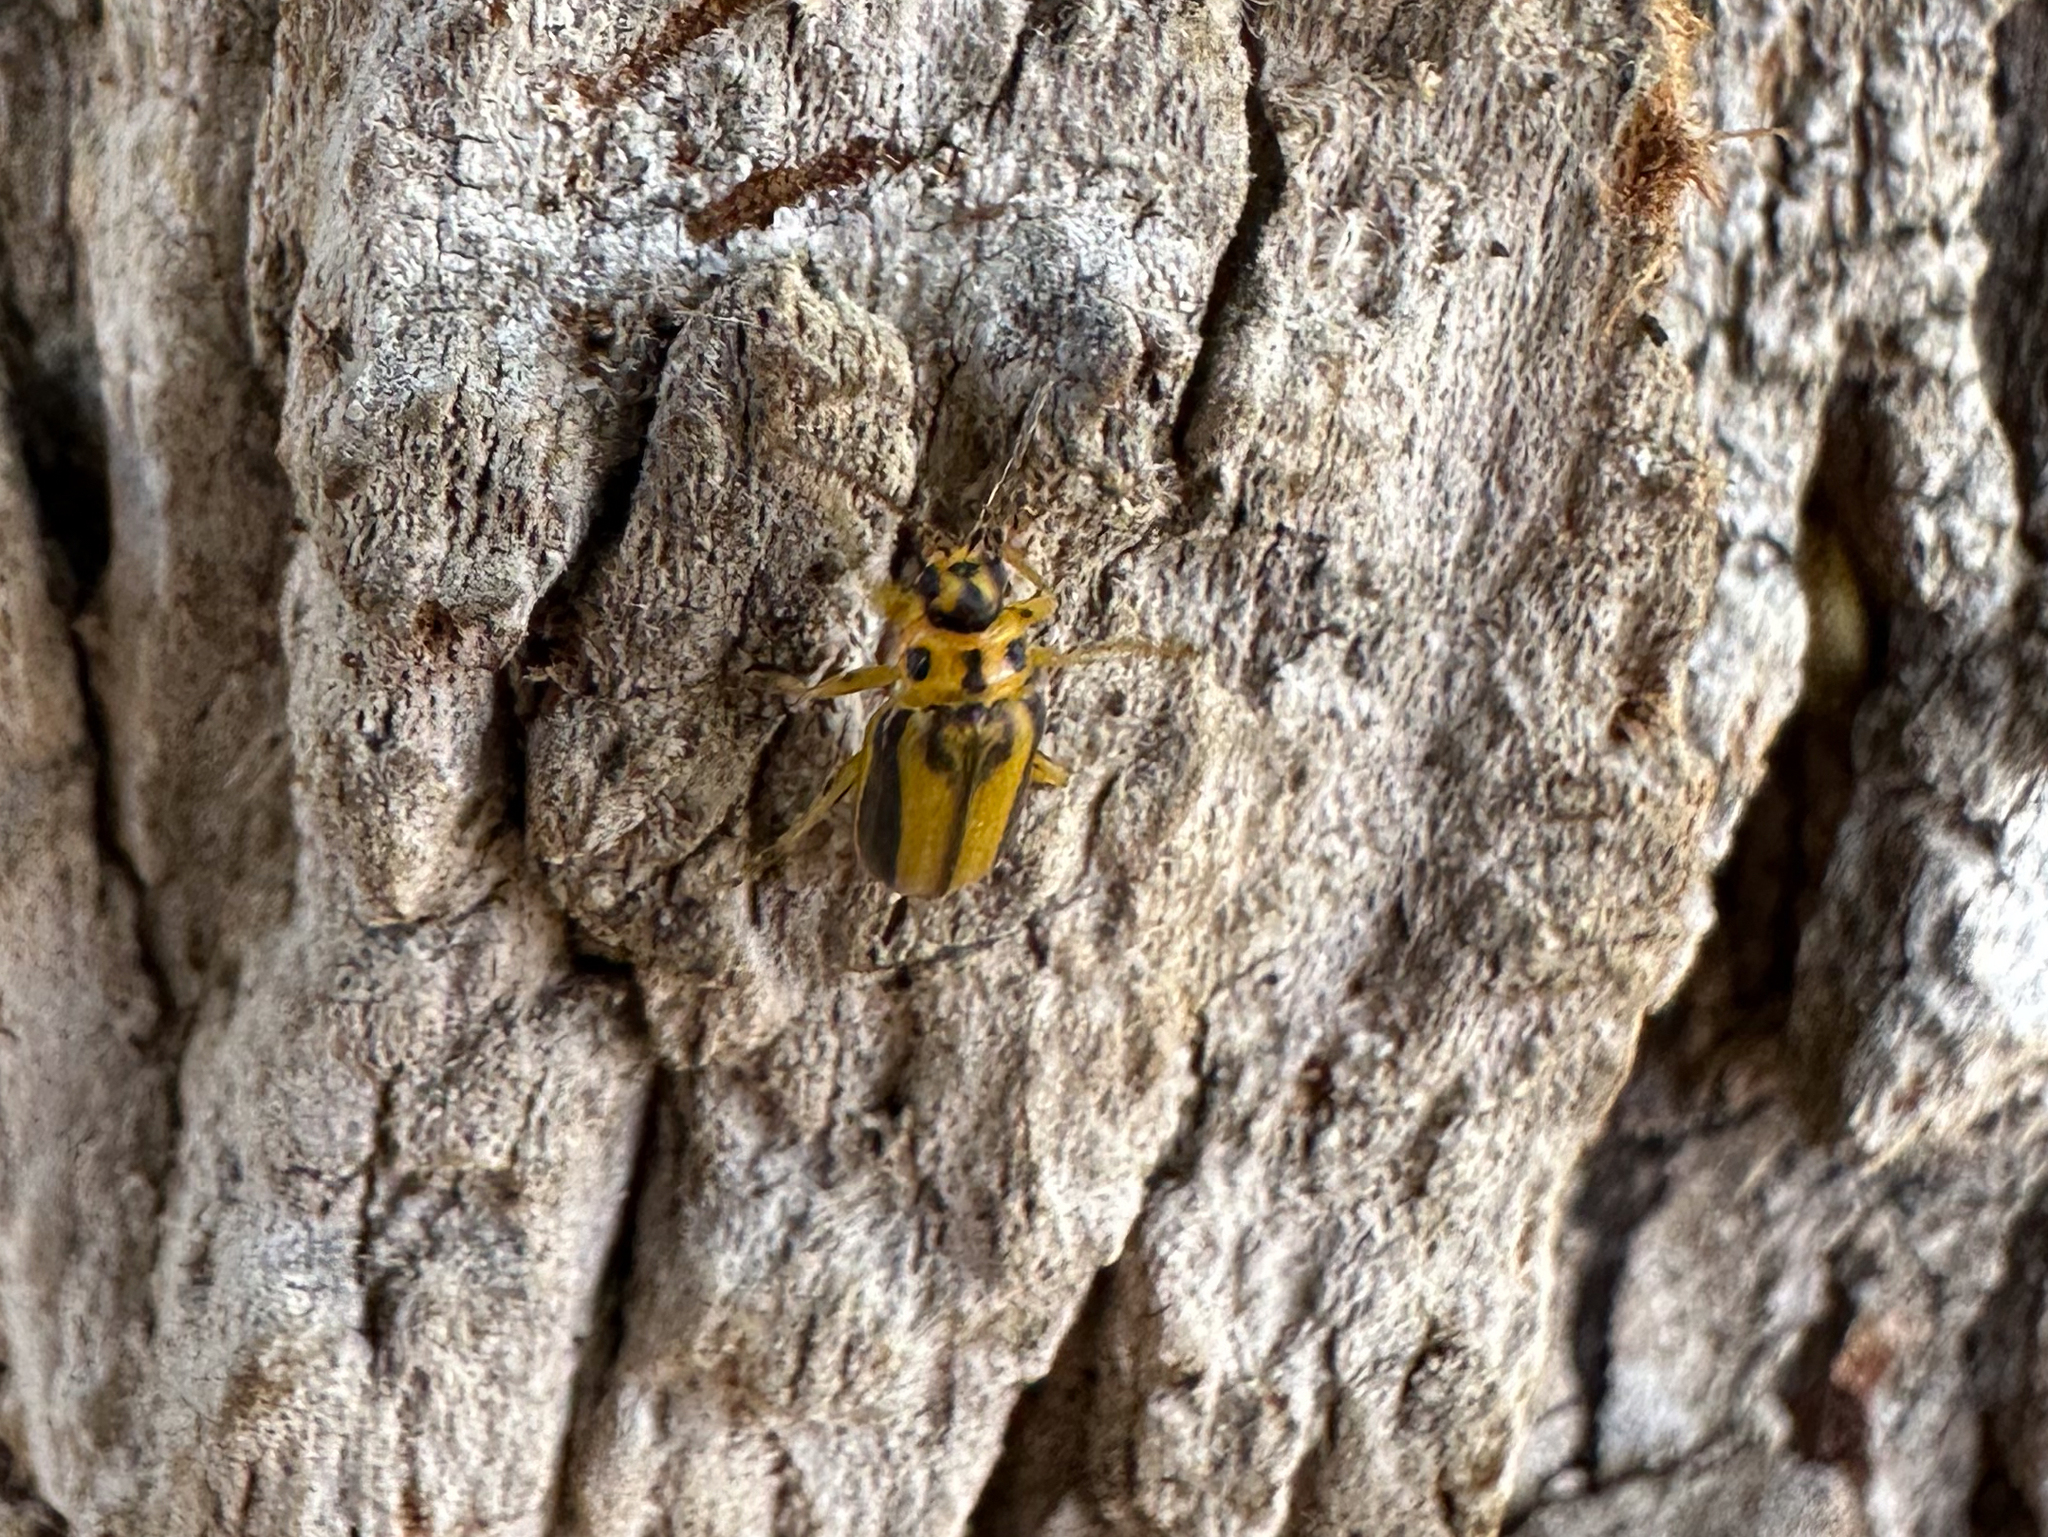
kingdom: Animalia
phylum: Arthropoda
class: Insecta
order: Coleoptera
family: Chrysomelidae
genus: Xanthogaleruca
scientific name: Xanthogaleruca luteola
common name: Elm leaf beetle
